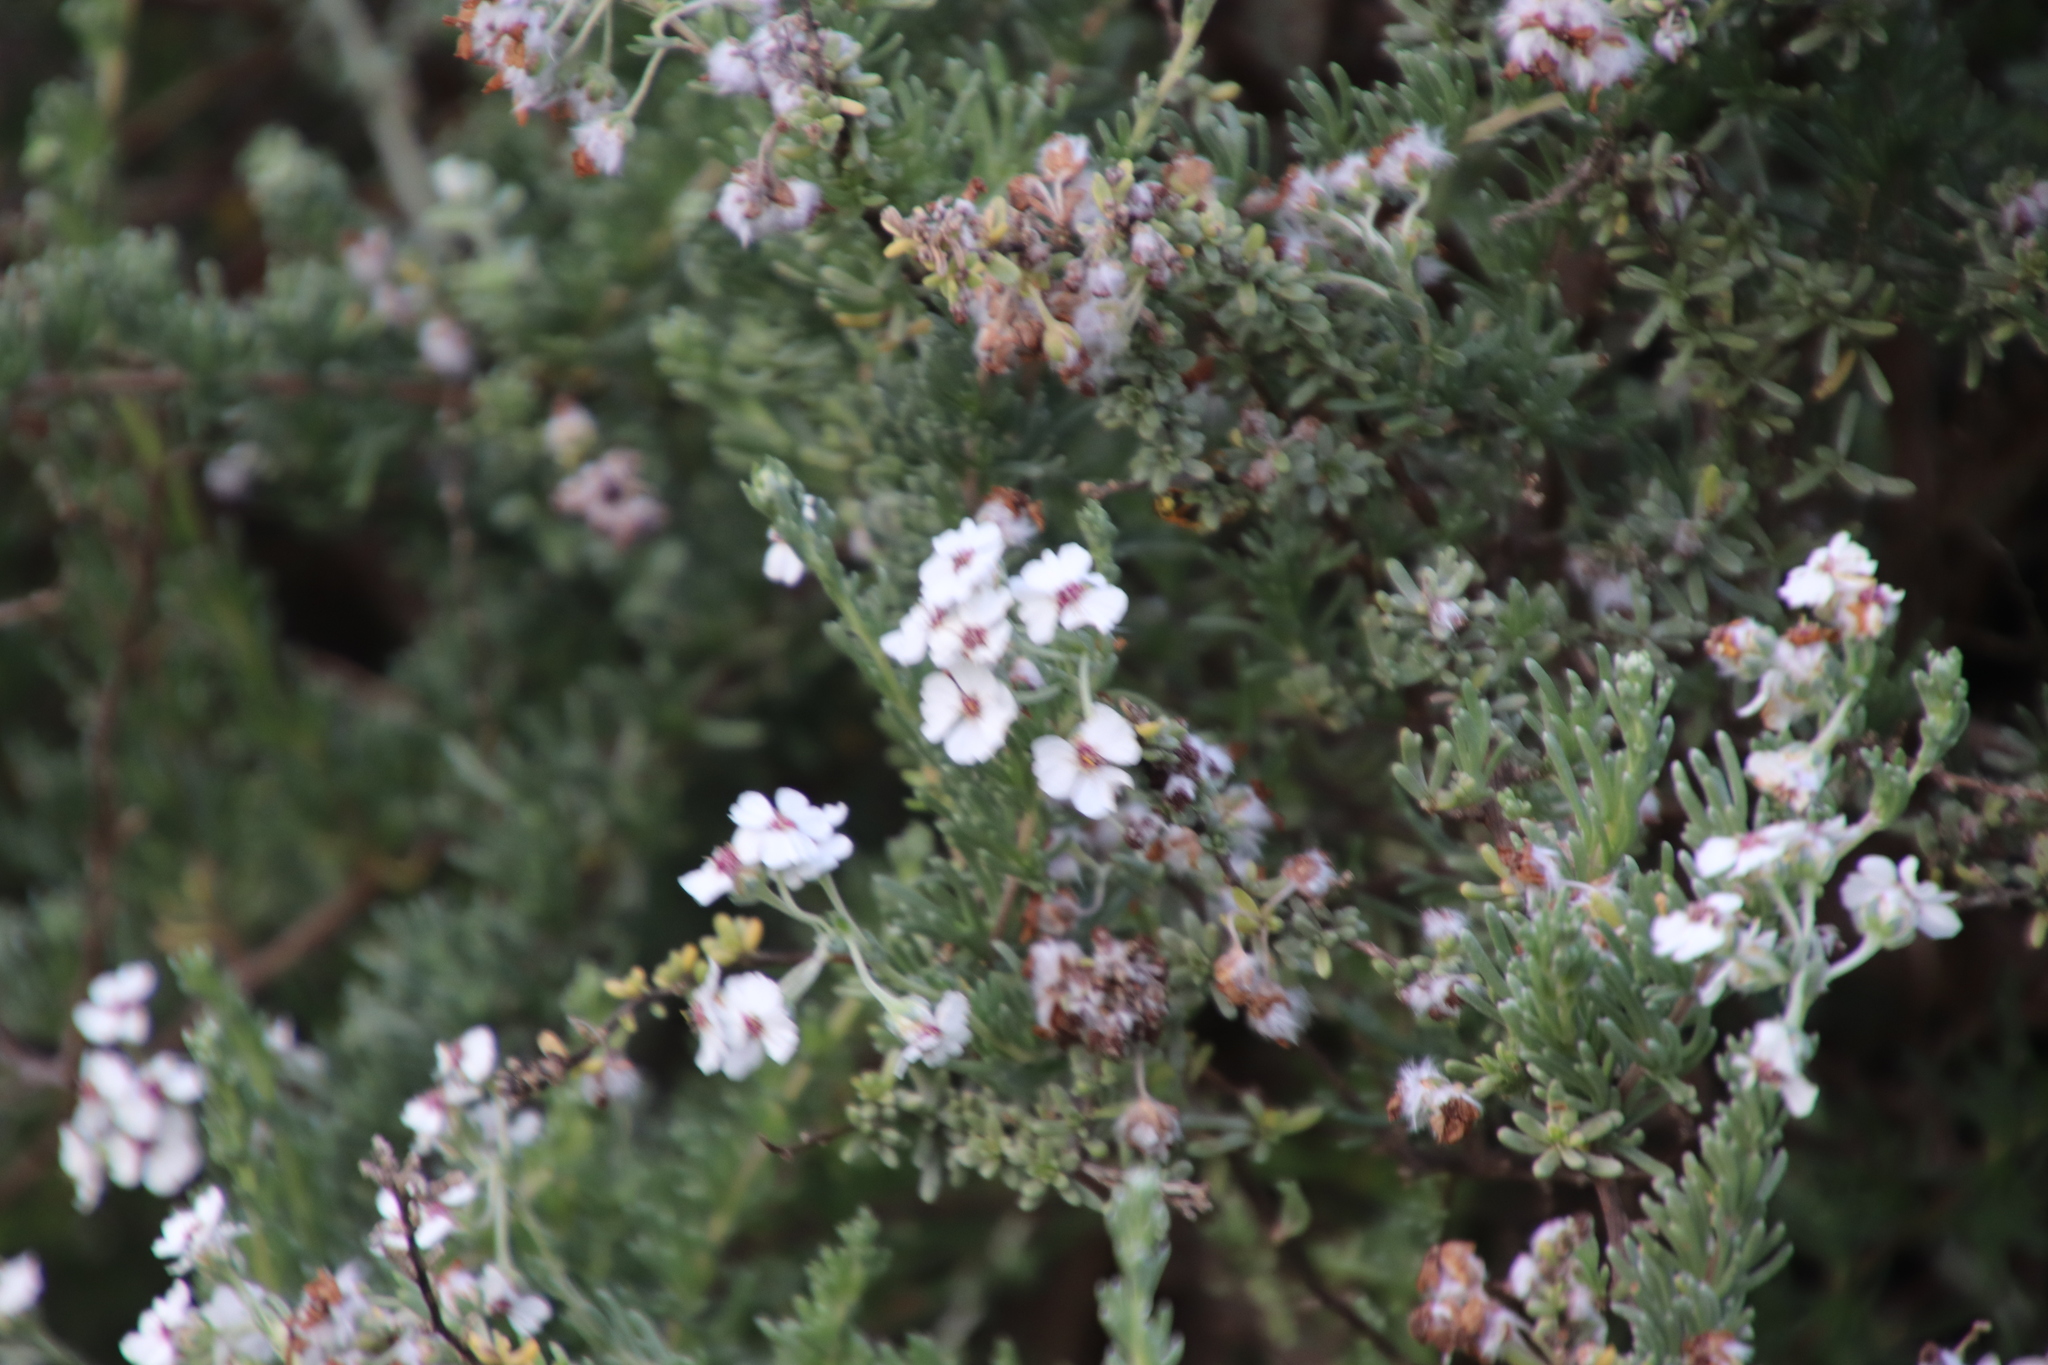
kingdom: Plantae
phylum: Tracheophyta
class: Magnoliopsida
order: Asterales
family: Asteraceae
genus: Eriocephalus
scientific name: Eriocephalus africanus
